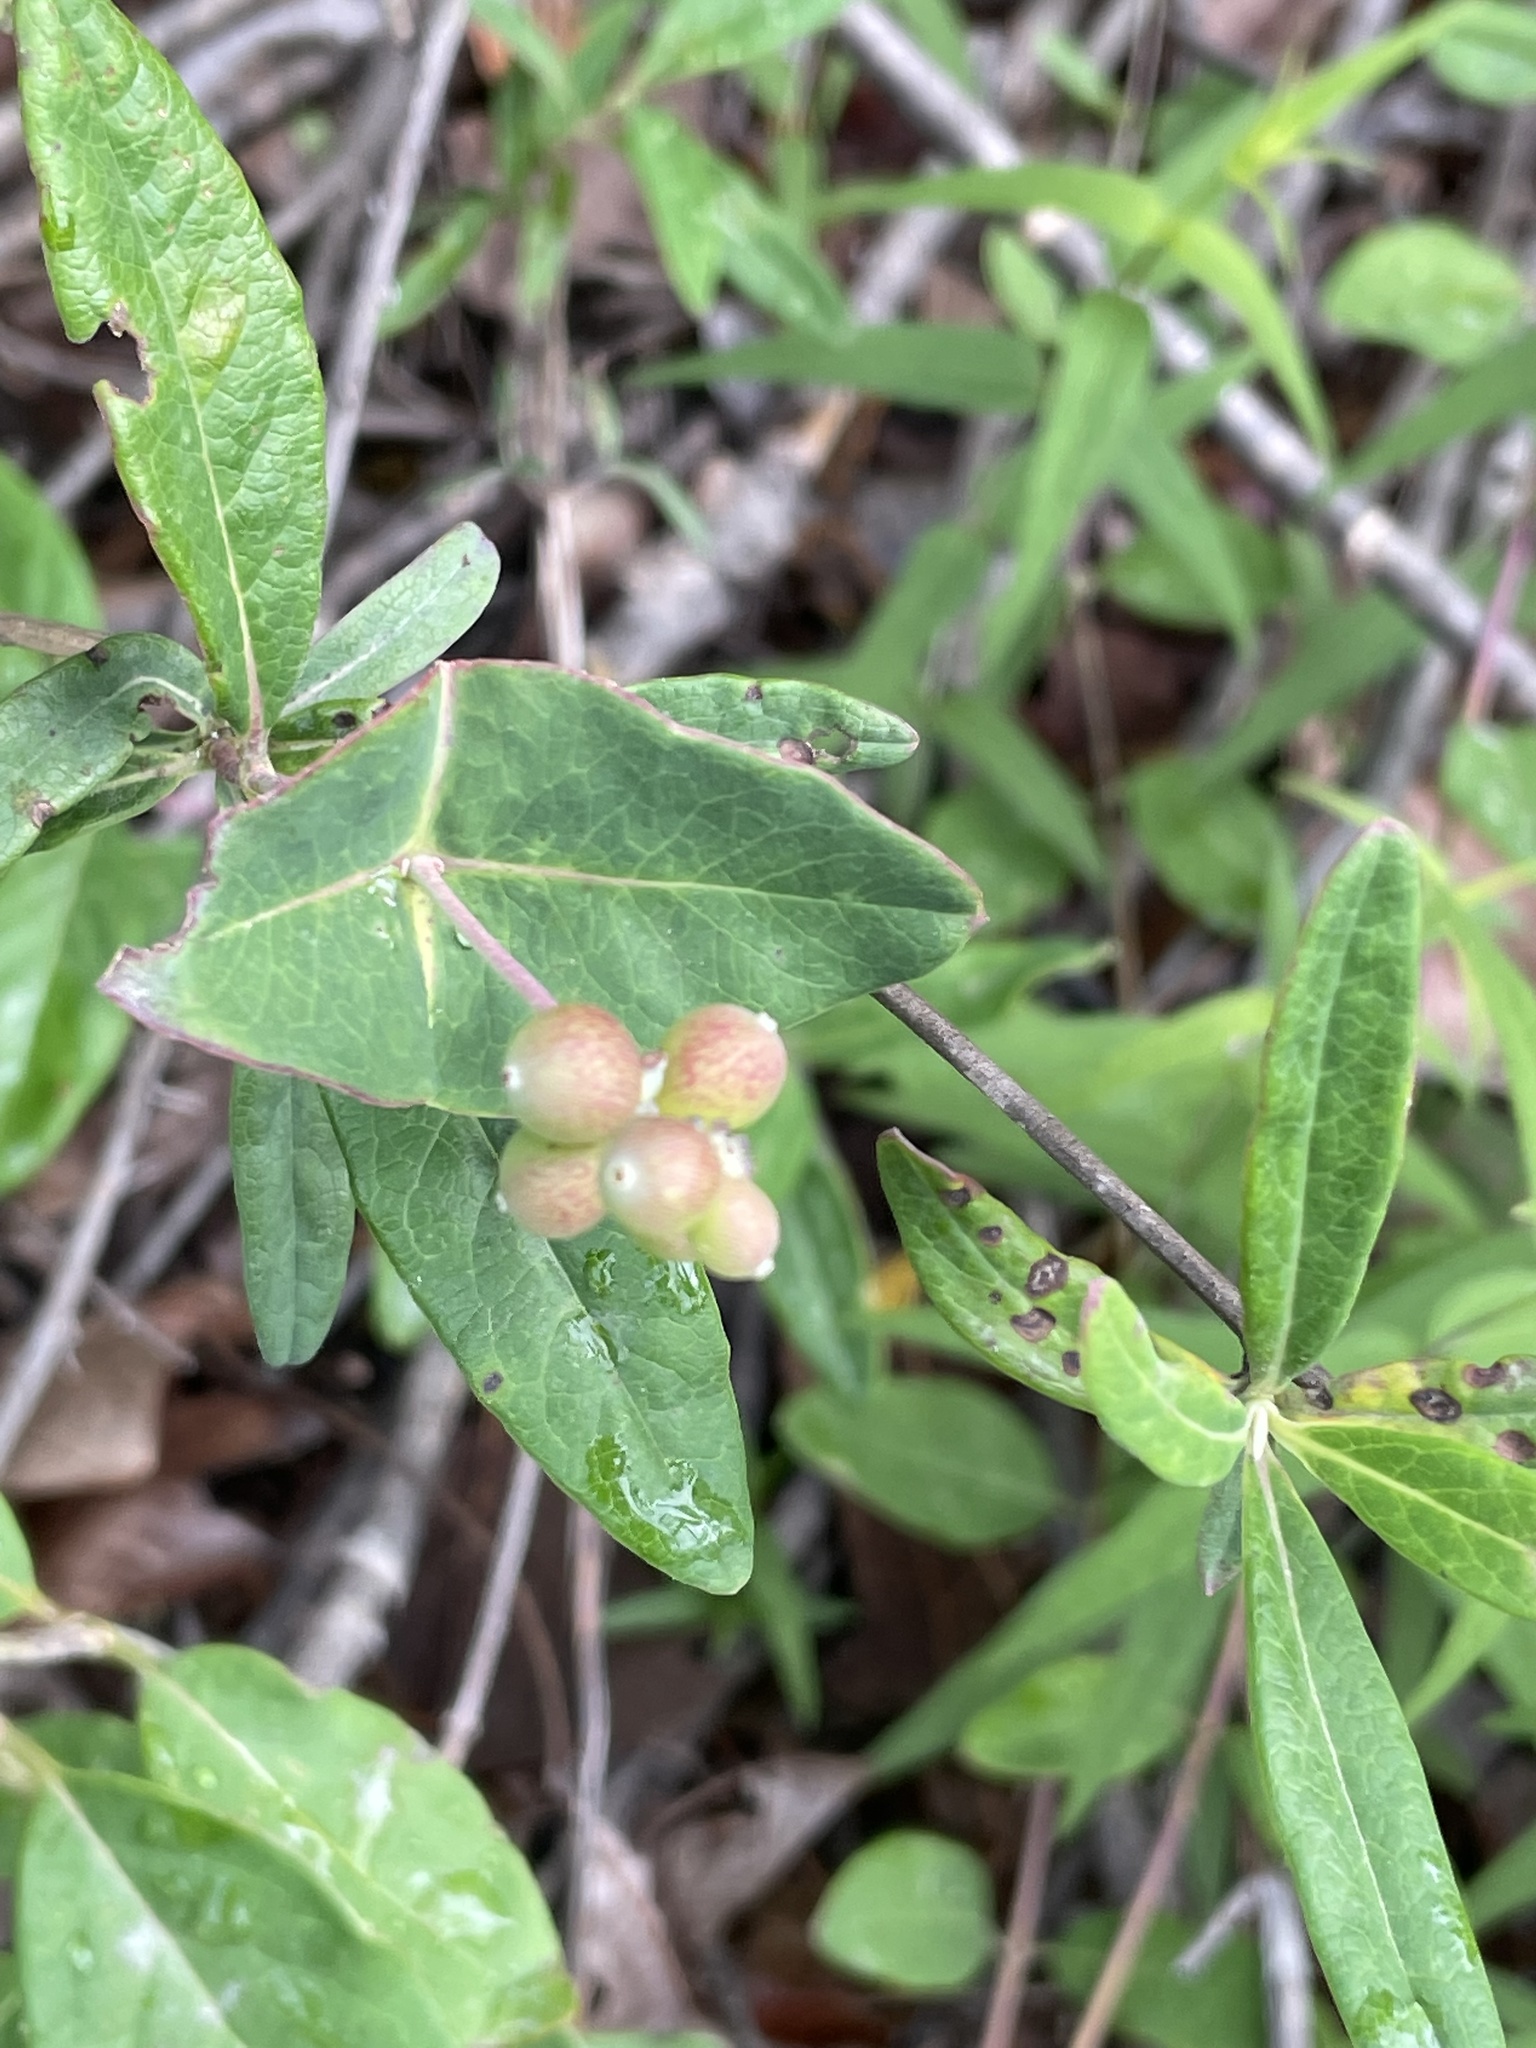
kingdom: Plantae
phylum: Tracheophyta
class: Magnoliopsida
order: Dipsacales
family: Caprifoliaceae
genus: Lonicera
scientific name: Lonicera sempervirens
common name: Coral honeysuckle
